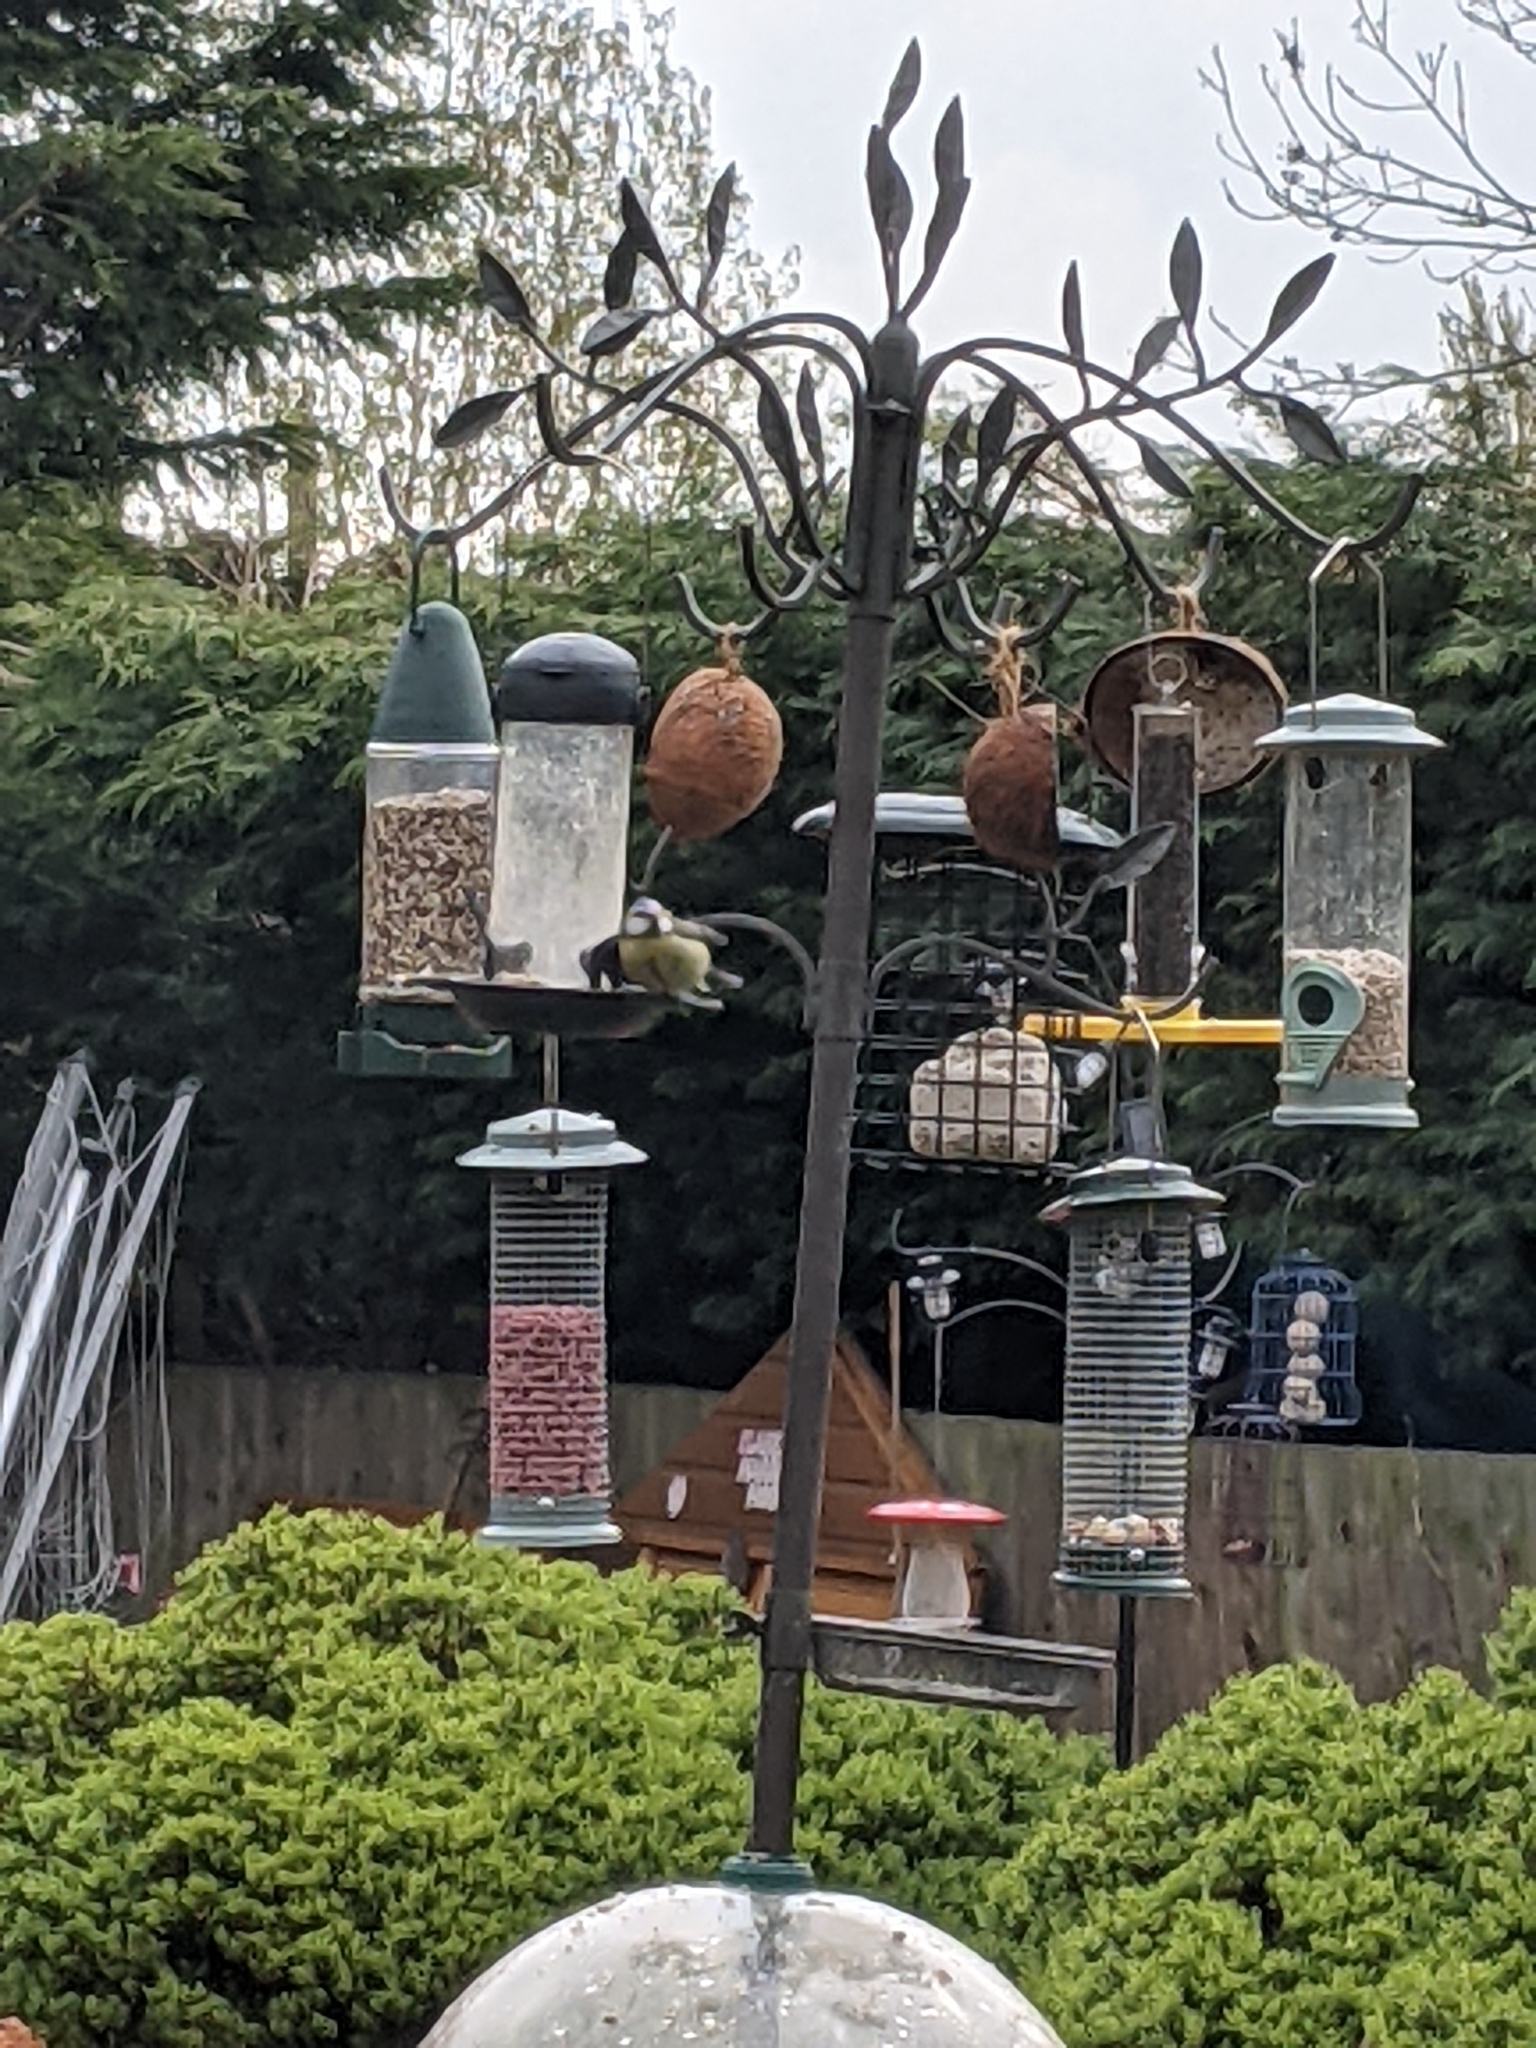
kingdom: Animalia
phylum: Chordata
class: Aves
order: Passeriformes
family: Paridae
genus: Cyanistes
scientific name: Cyanistes caeruleus
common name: Eurasian blue tit
